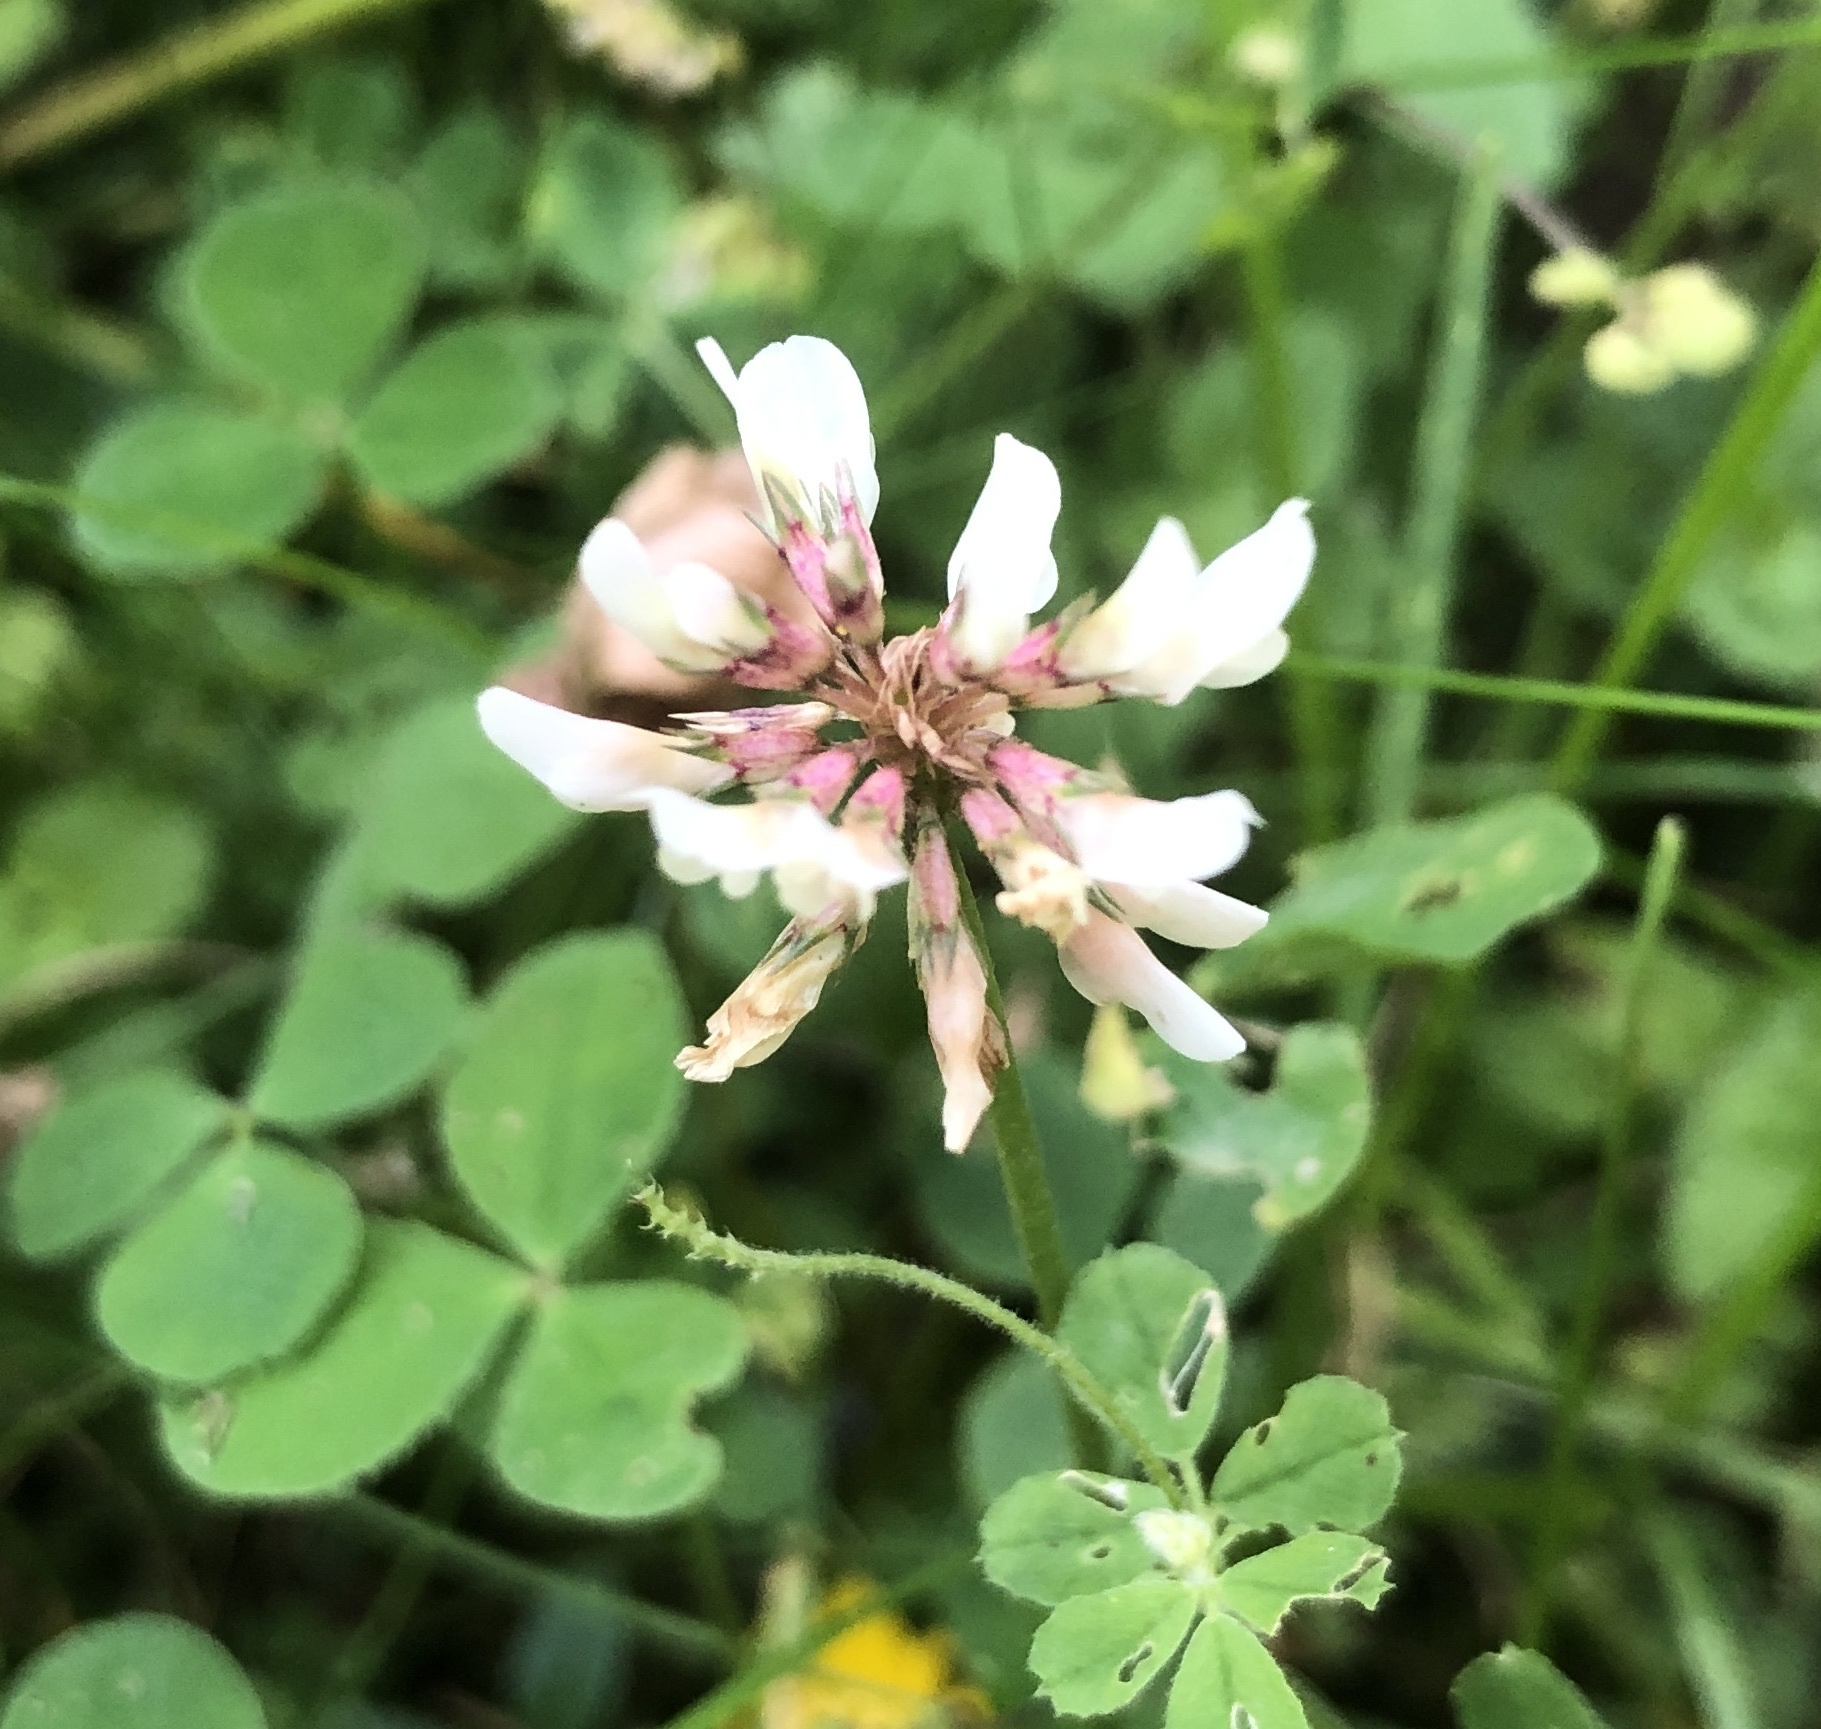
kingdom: Plantae
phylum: Tracheophyta
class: Magnoliopsida
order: Fabales
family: Fabaceae
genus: Trifolium
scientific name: Trifolium repens
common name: White clover
